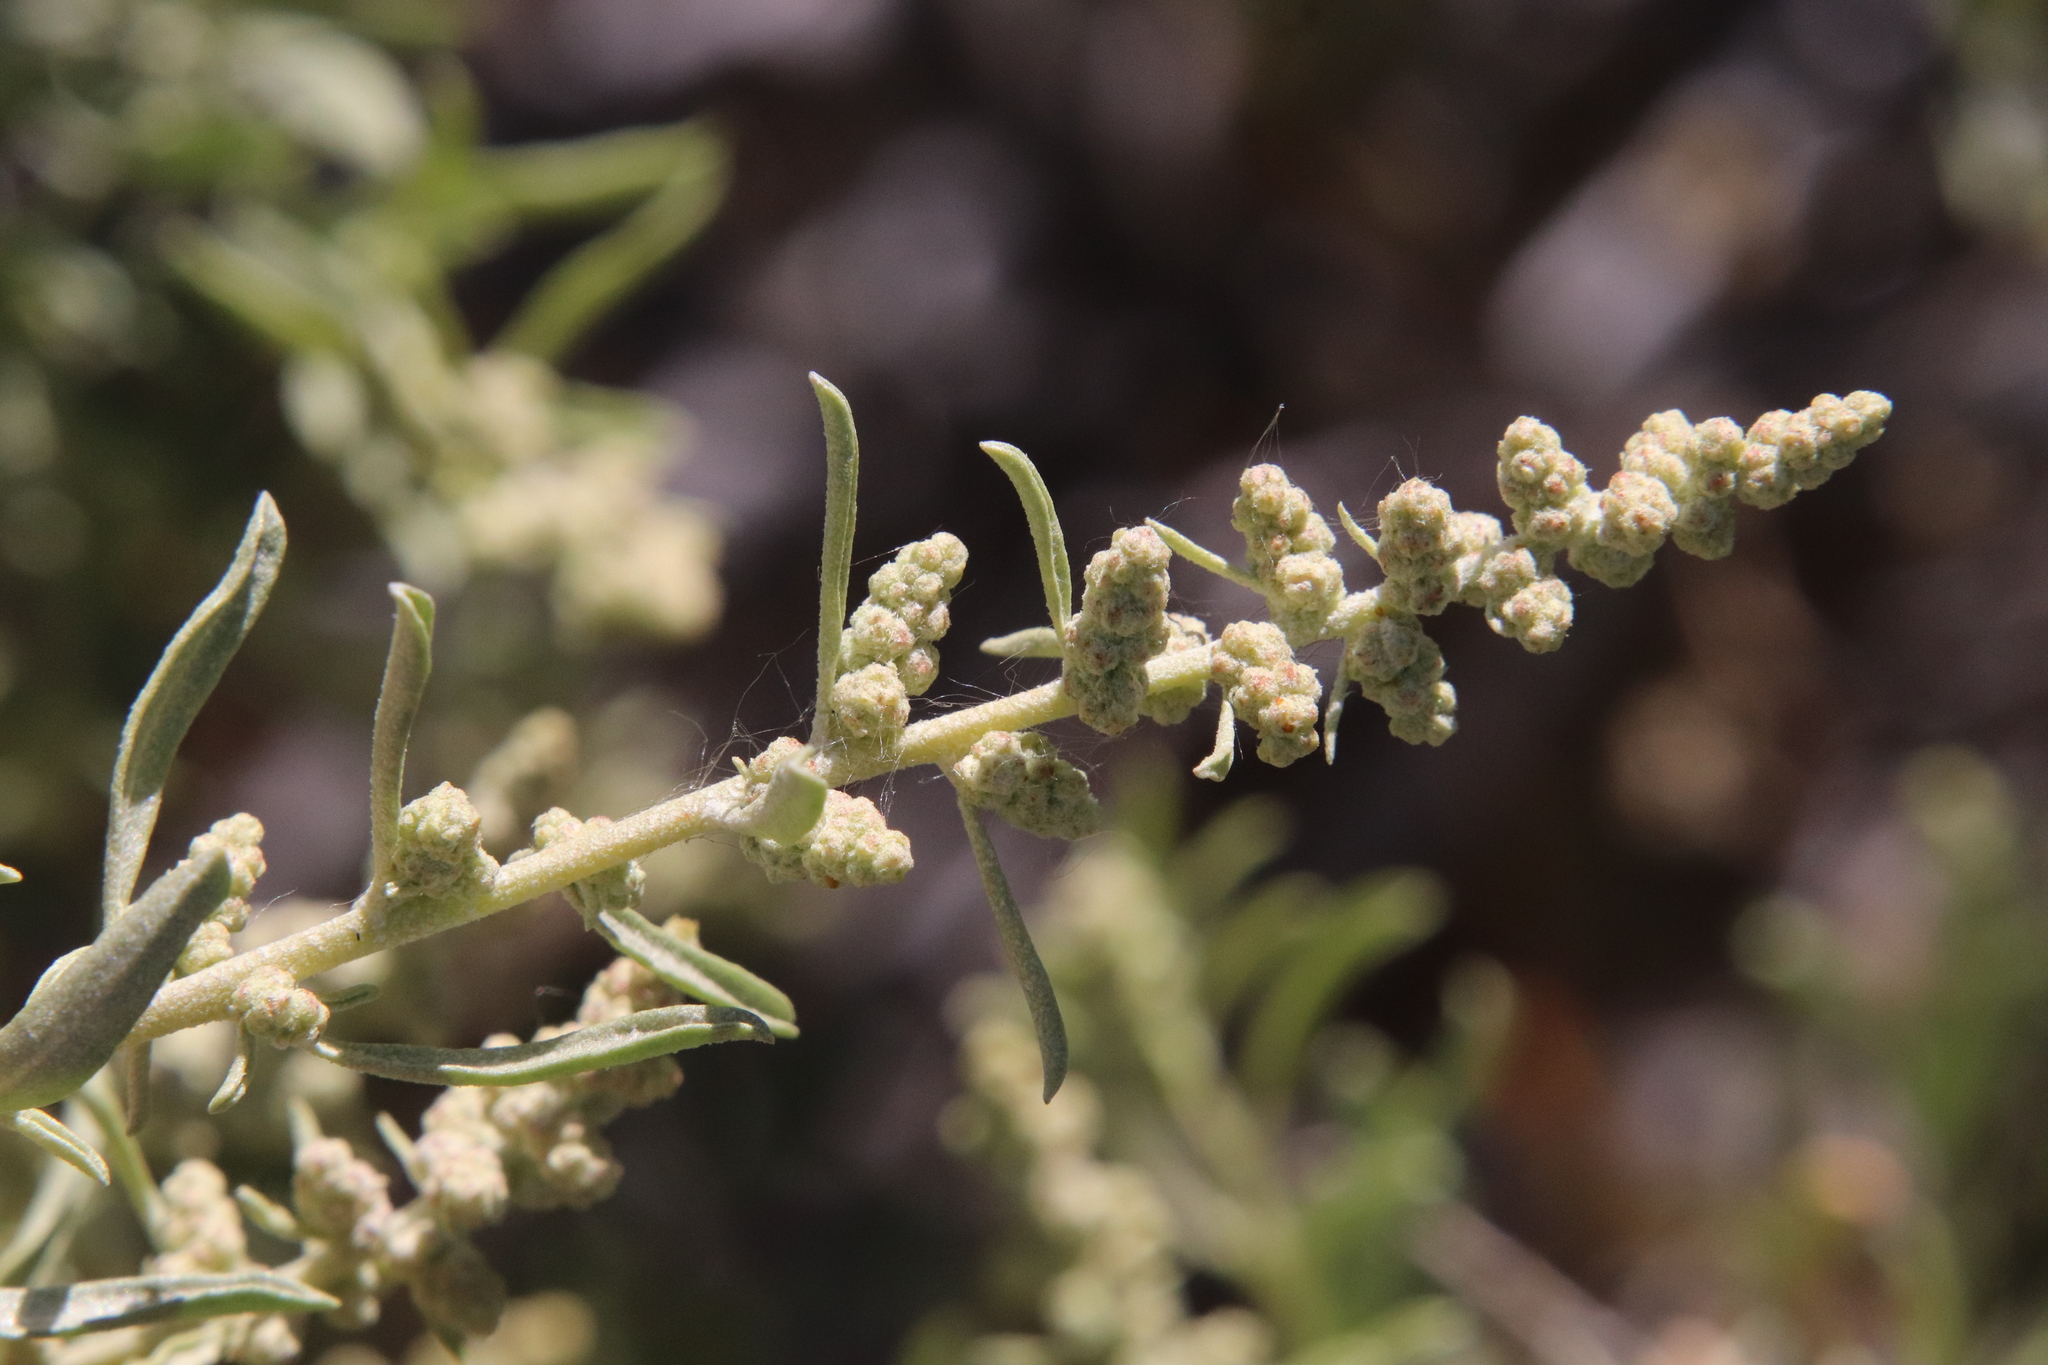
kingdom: Plantae
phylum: Tracheophyta
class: Magnoliopsida
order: Caryophyllales
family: Amaranthaceae
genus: Atriplex
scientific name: Atriplex canescens
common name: Four-wing saltbush
